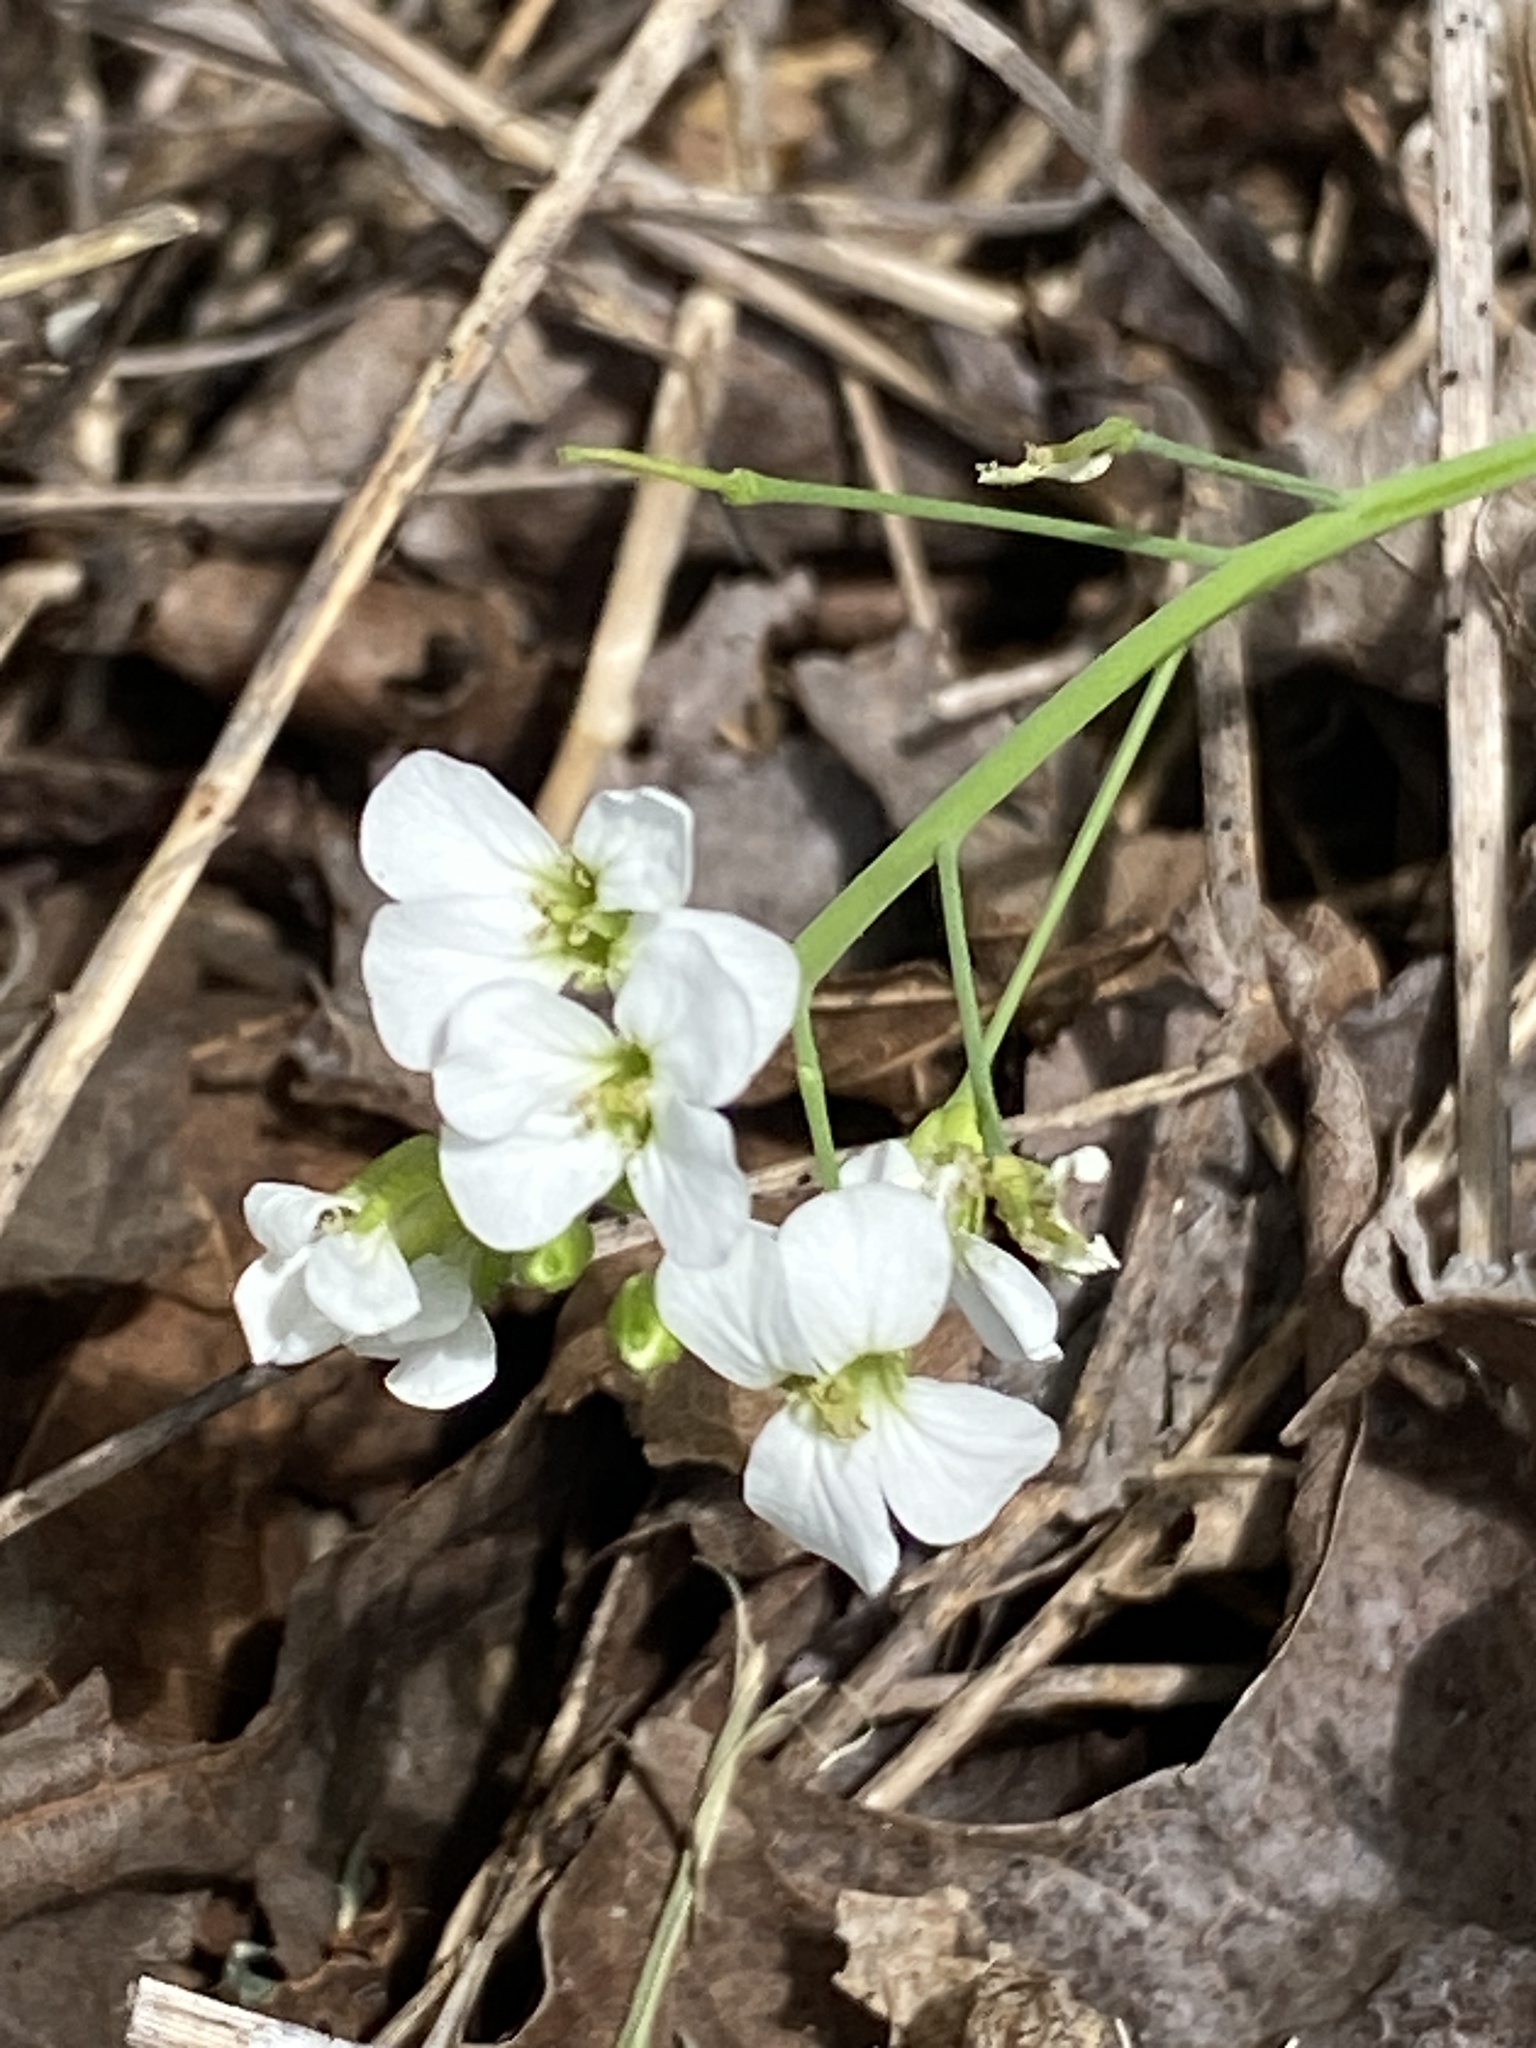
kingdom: Plantae
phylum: Tracheophyta
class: Magnoliopsida
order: Brassicales
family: Brassicaceae
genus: Arabidopsis
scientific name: Arabidopsis lyrata
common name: Lyrate rockcress
